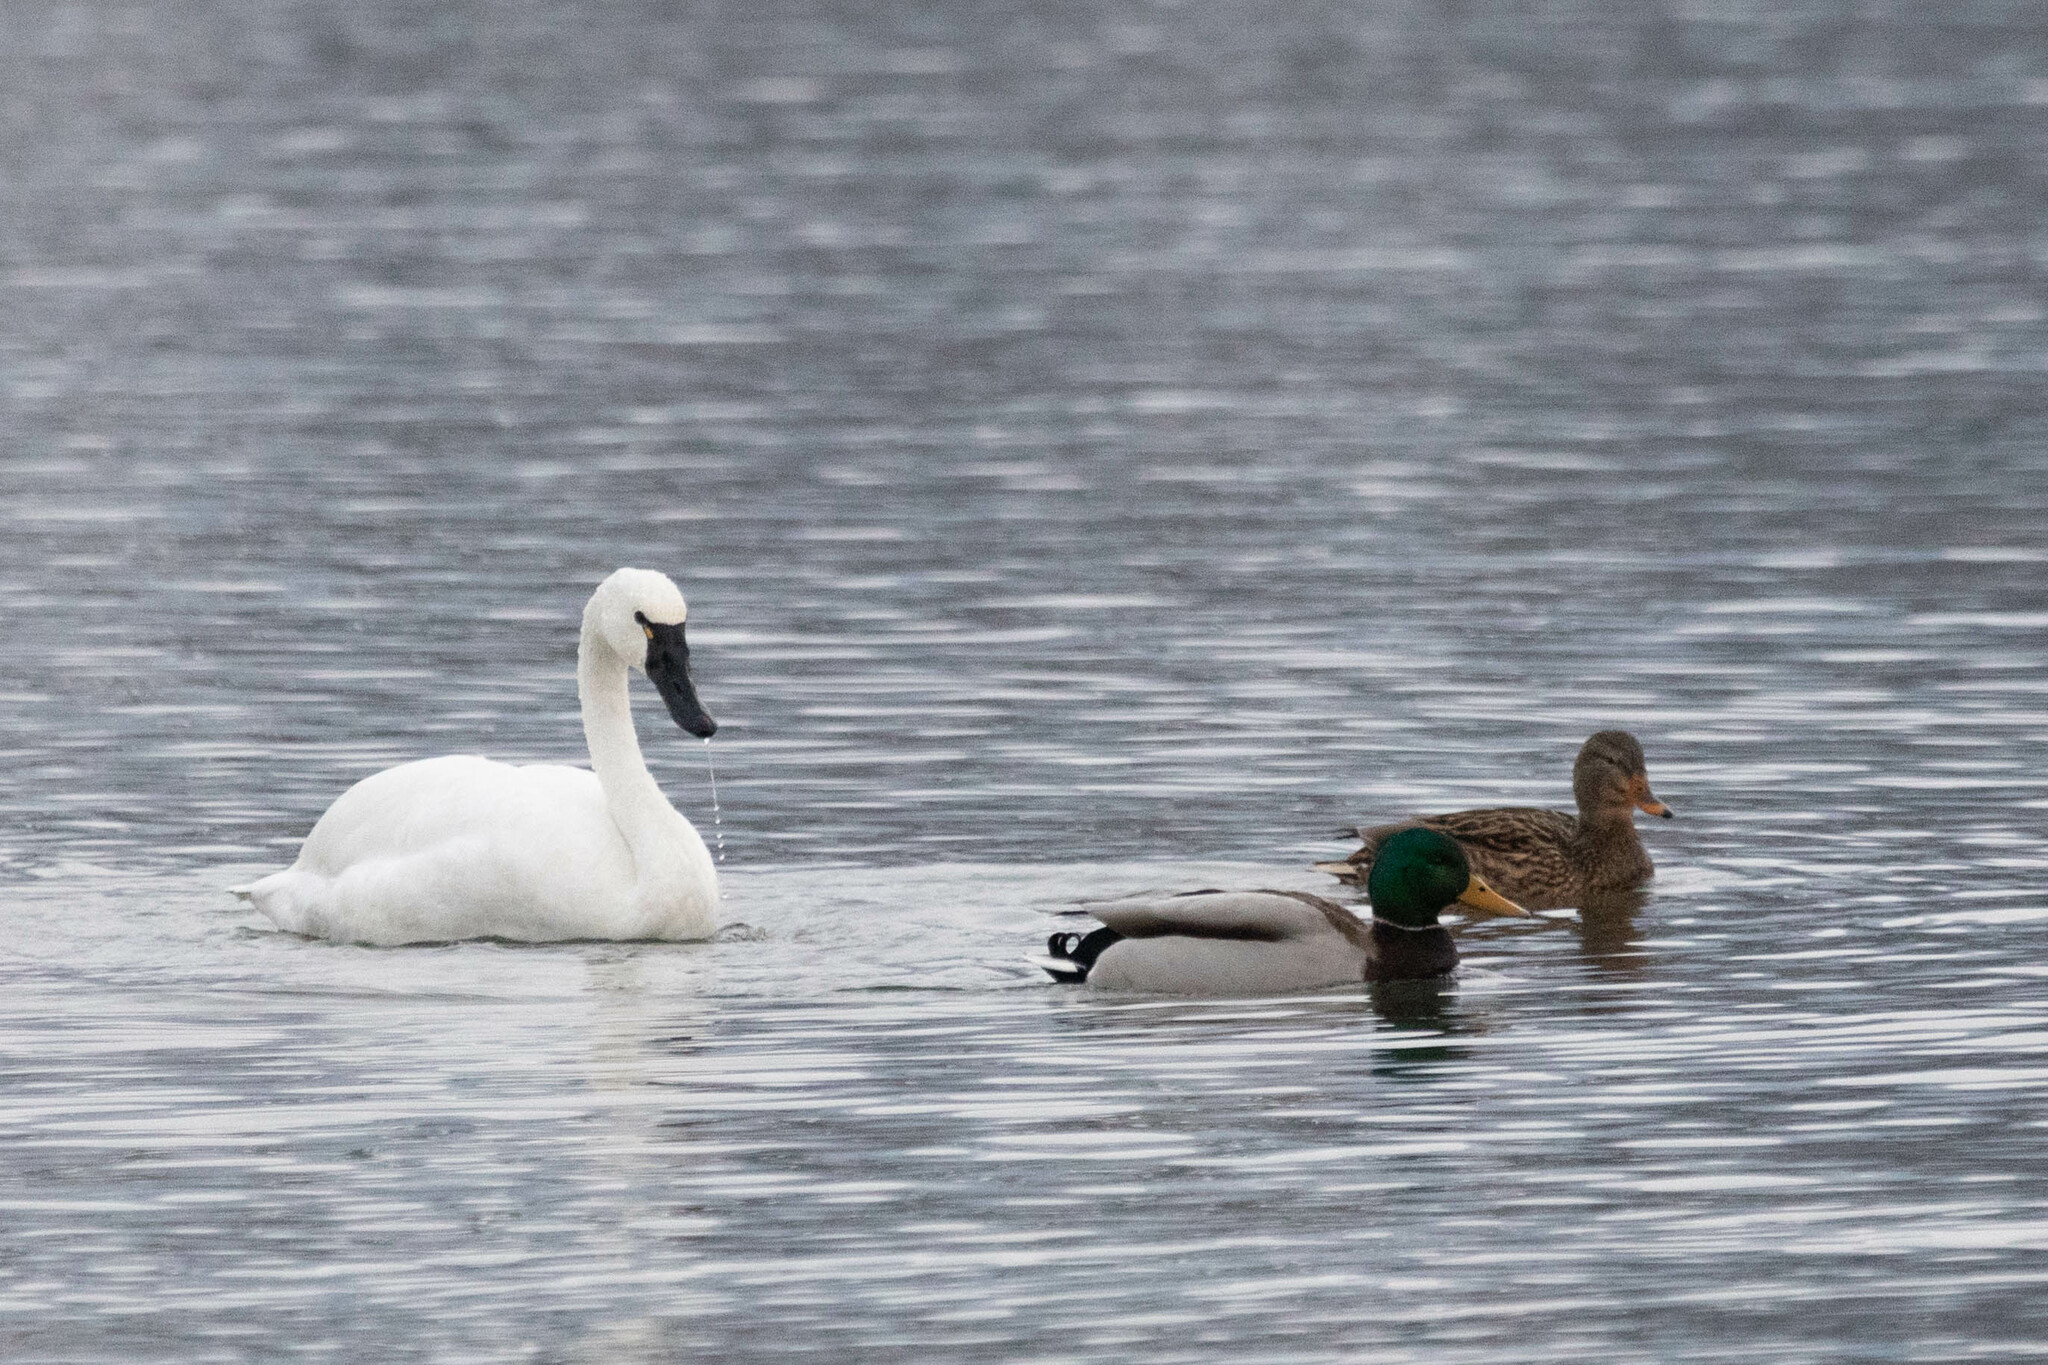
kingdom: Animalia
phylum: Chordata
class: Aves
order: Anseriformes
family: Anatidae
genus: Cygnus
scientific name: Cygnus columbianus
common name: Tundra swan
